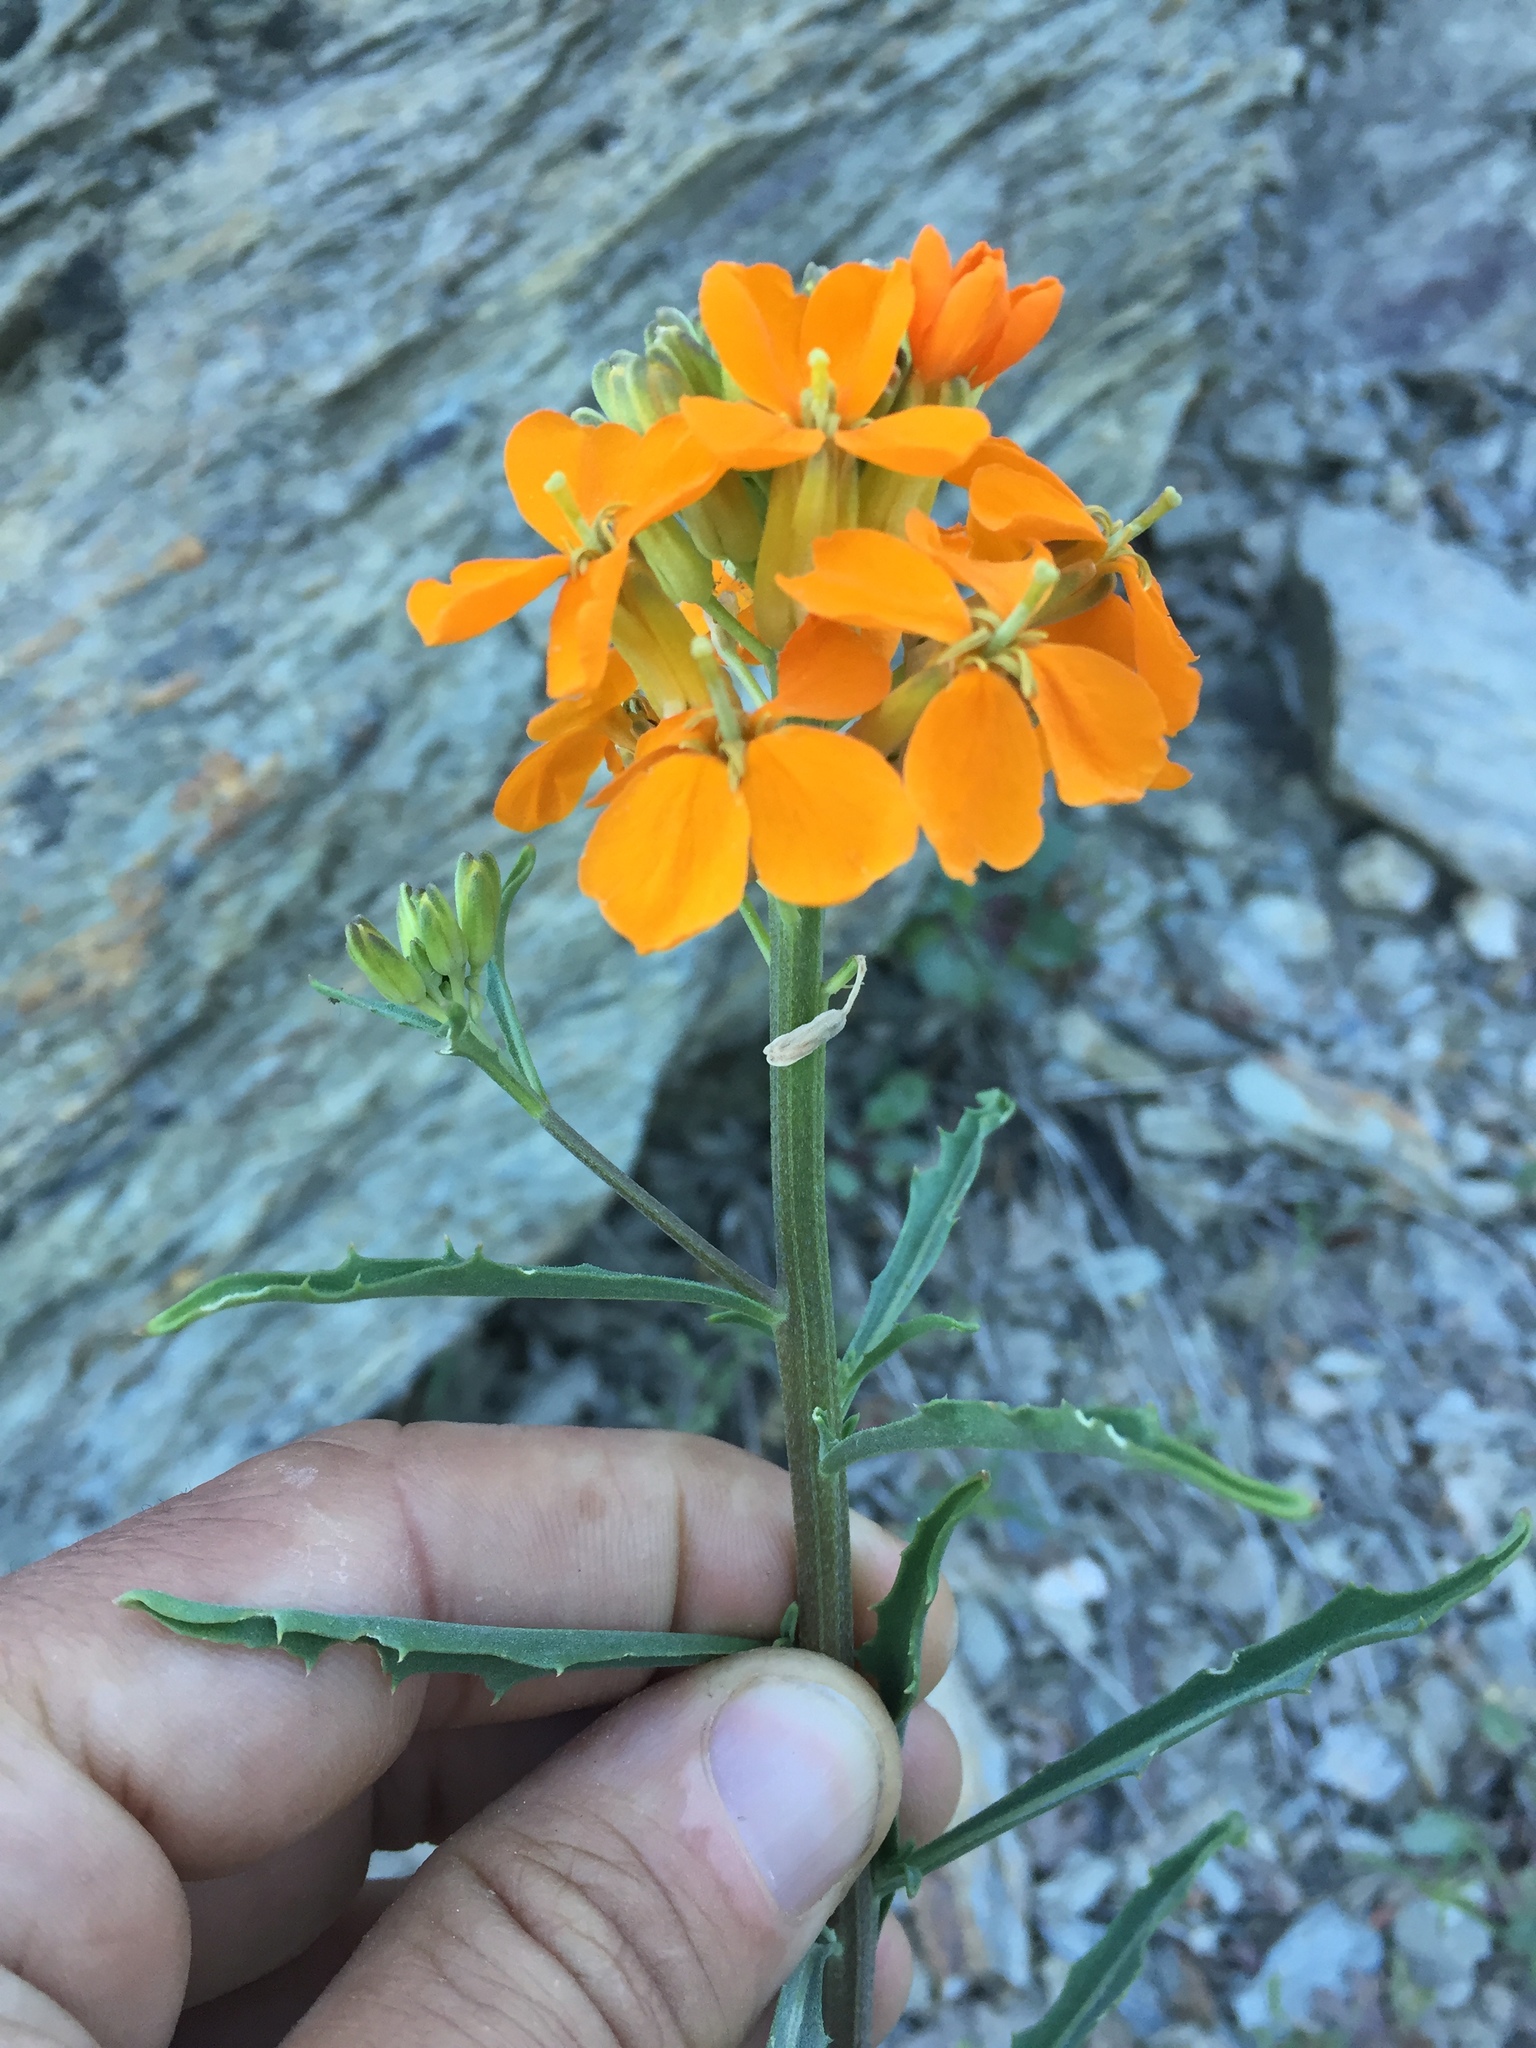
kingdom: Plantae
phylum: Tracheophyta
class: Magnoliopsida
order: Brassicales
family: Brassicaceae
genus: Erysimum
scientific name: Erysimum capitatum
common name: Western wallflower
